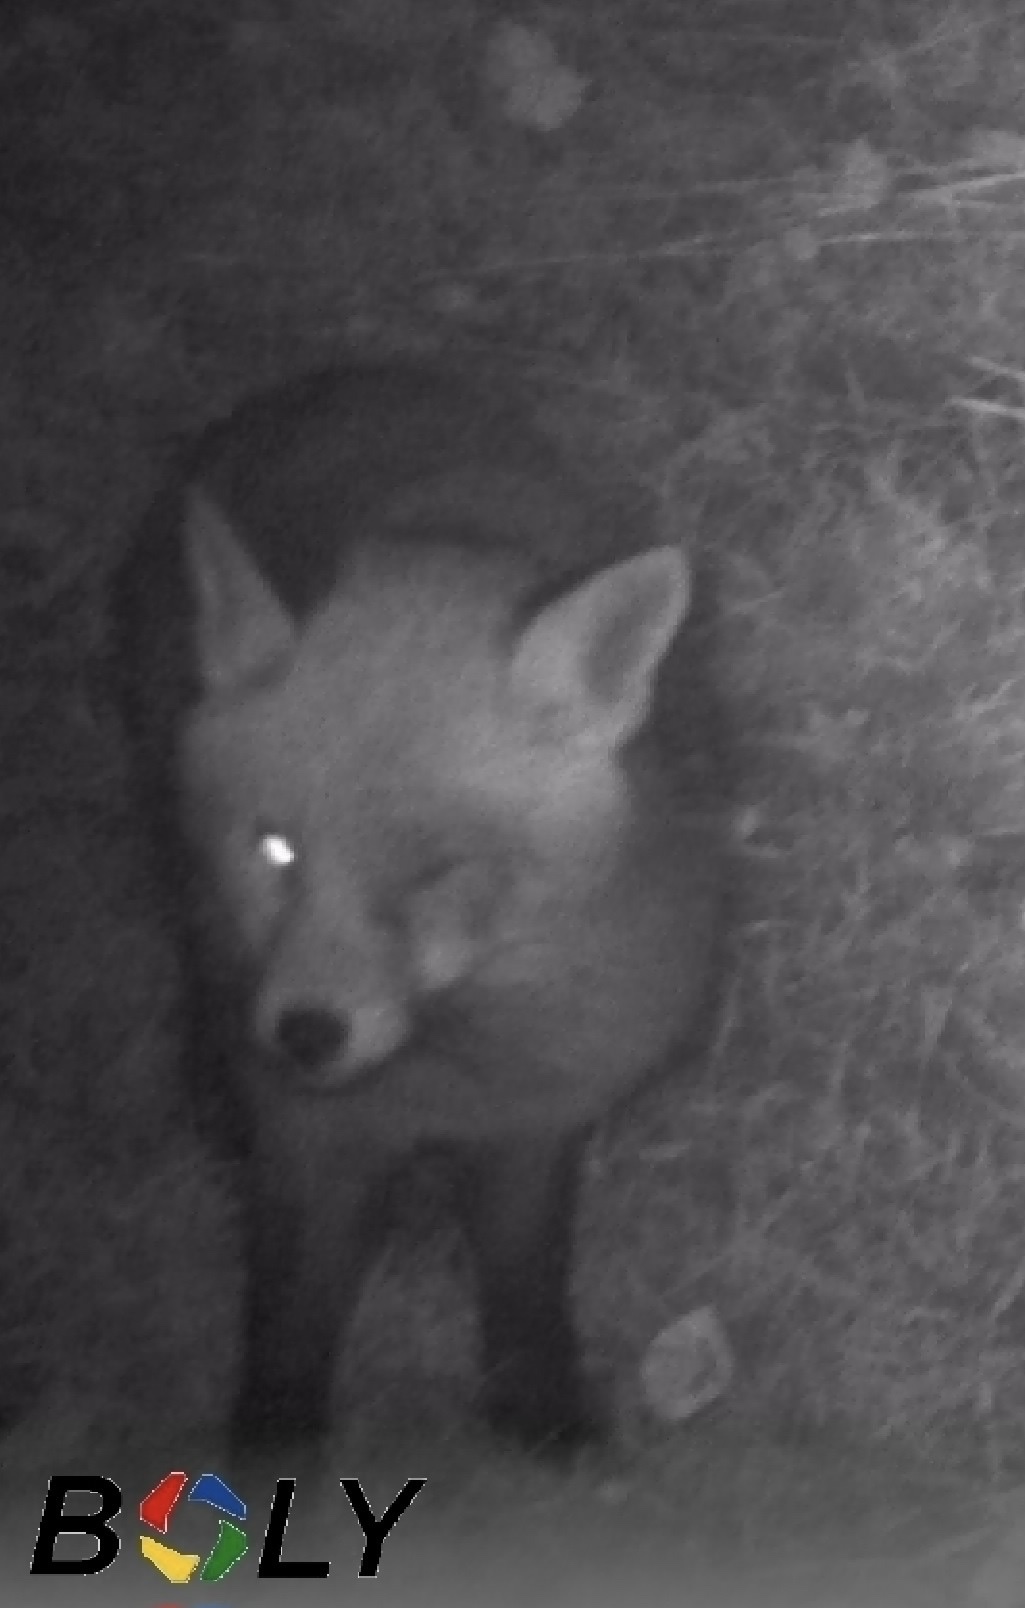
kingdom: Animalia
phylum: Chordata
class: Mammalia
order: Carnivora
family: Canidae
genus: Vulpes
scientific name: Vulpes vulpes
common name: Red fox
